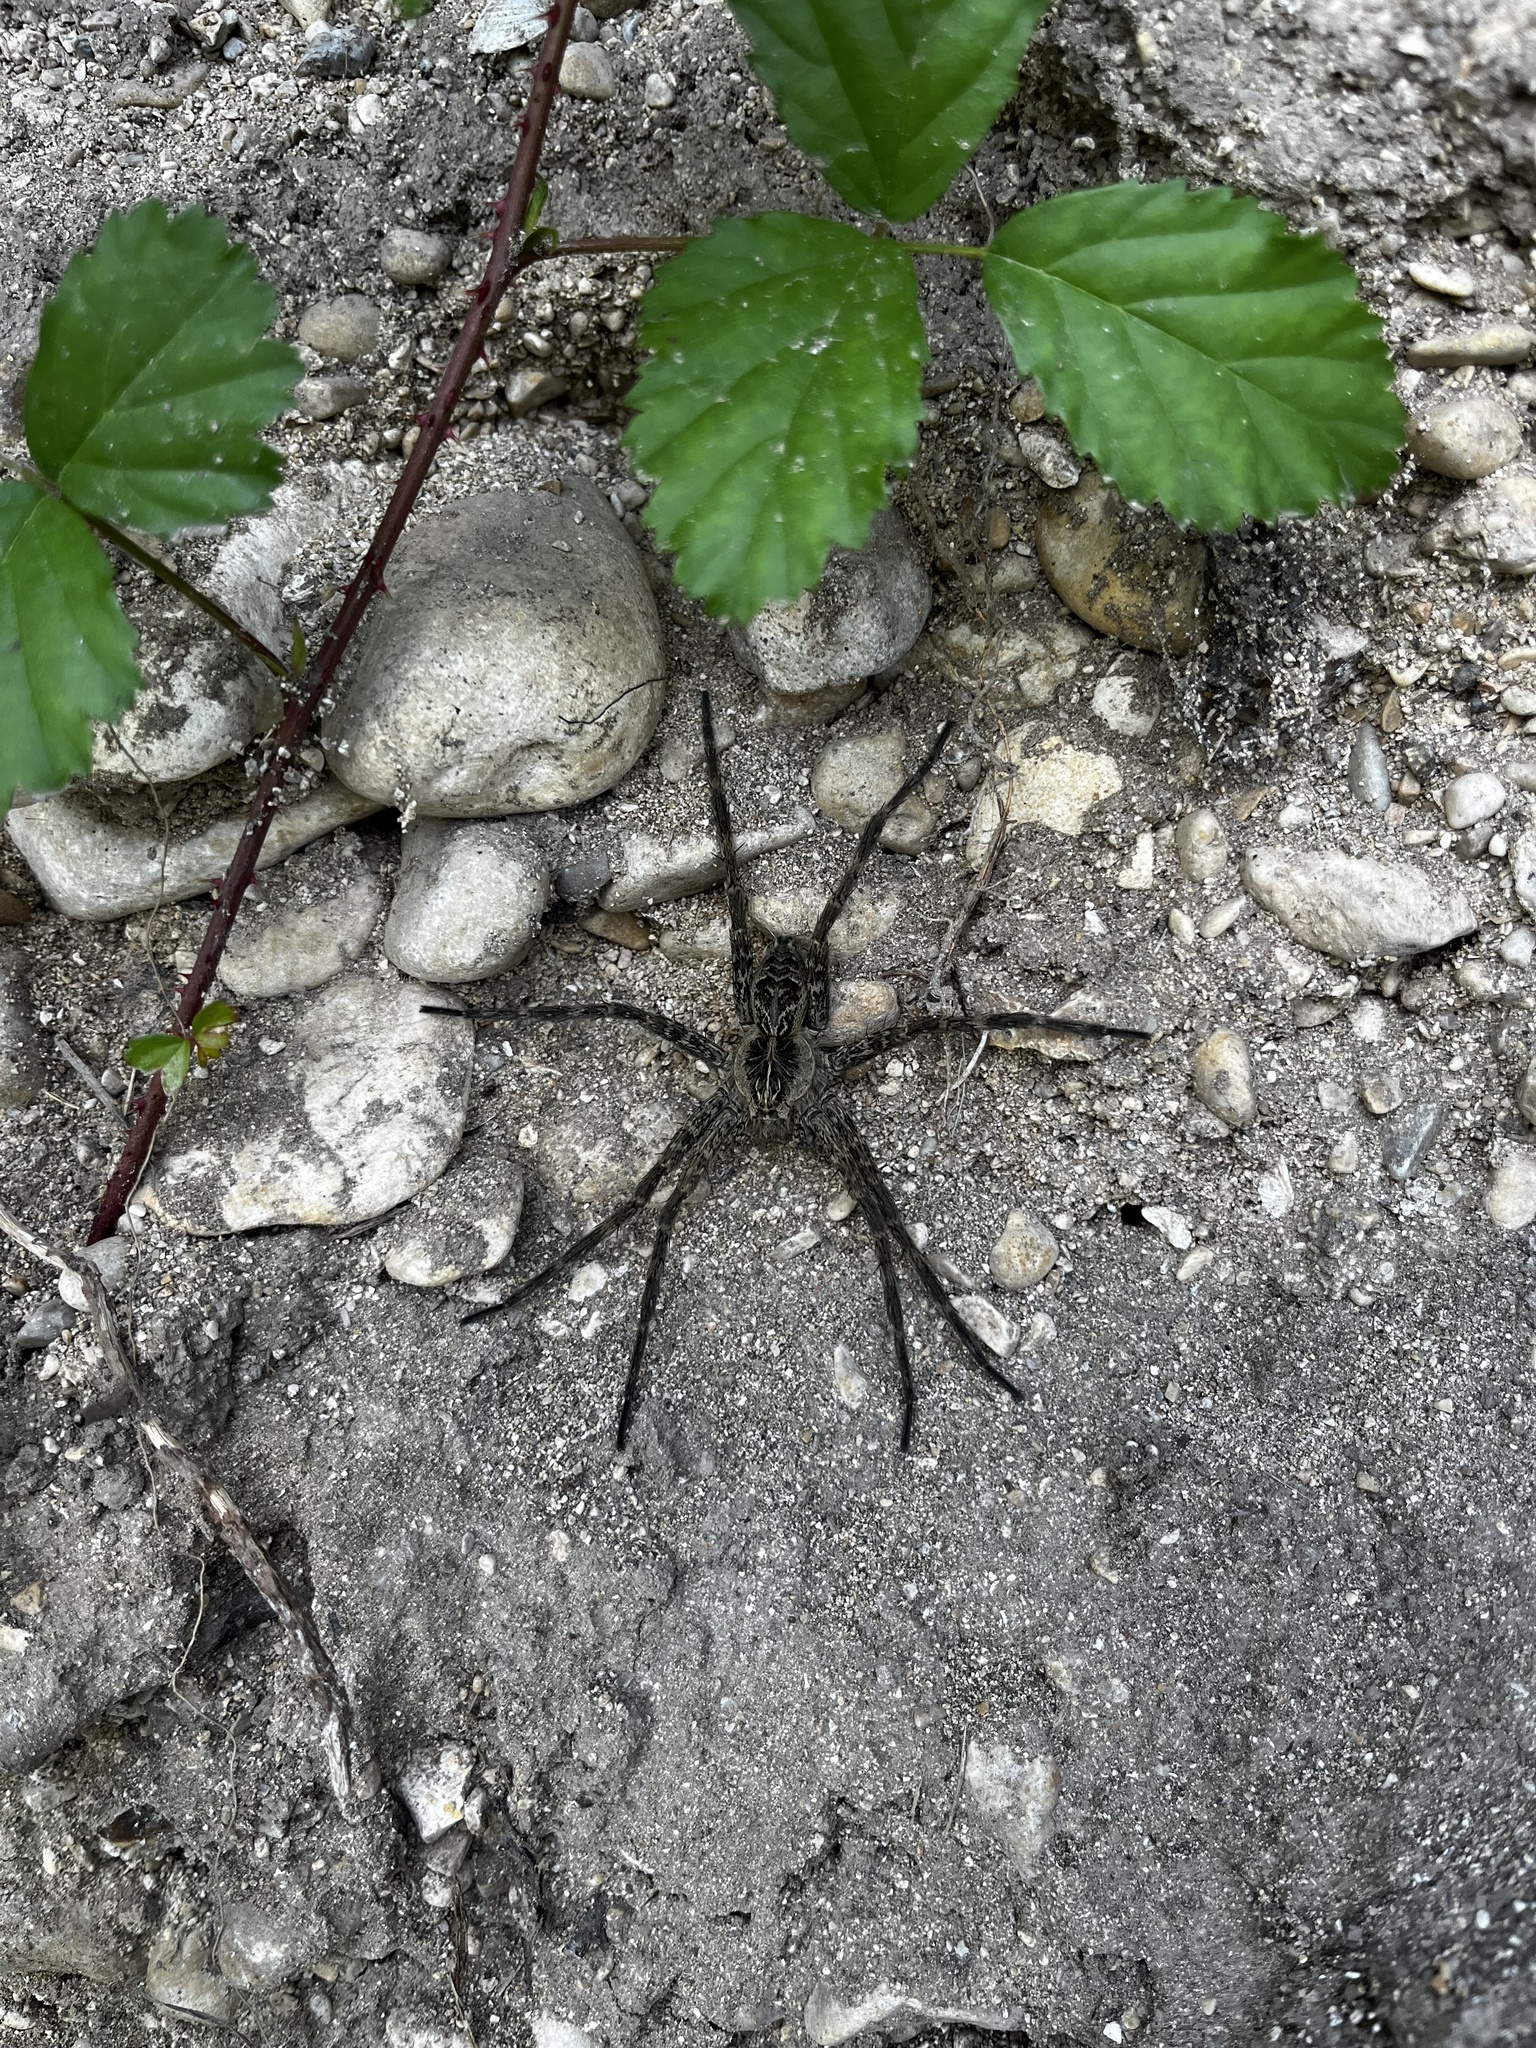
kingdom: Animalia
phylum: Arthropoda
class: Arachnida
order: Araneae
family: Pisauridae
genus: Dolomedes
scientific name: Dolomedes scriptus
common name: Striped fishing spider
